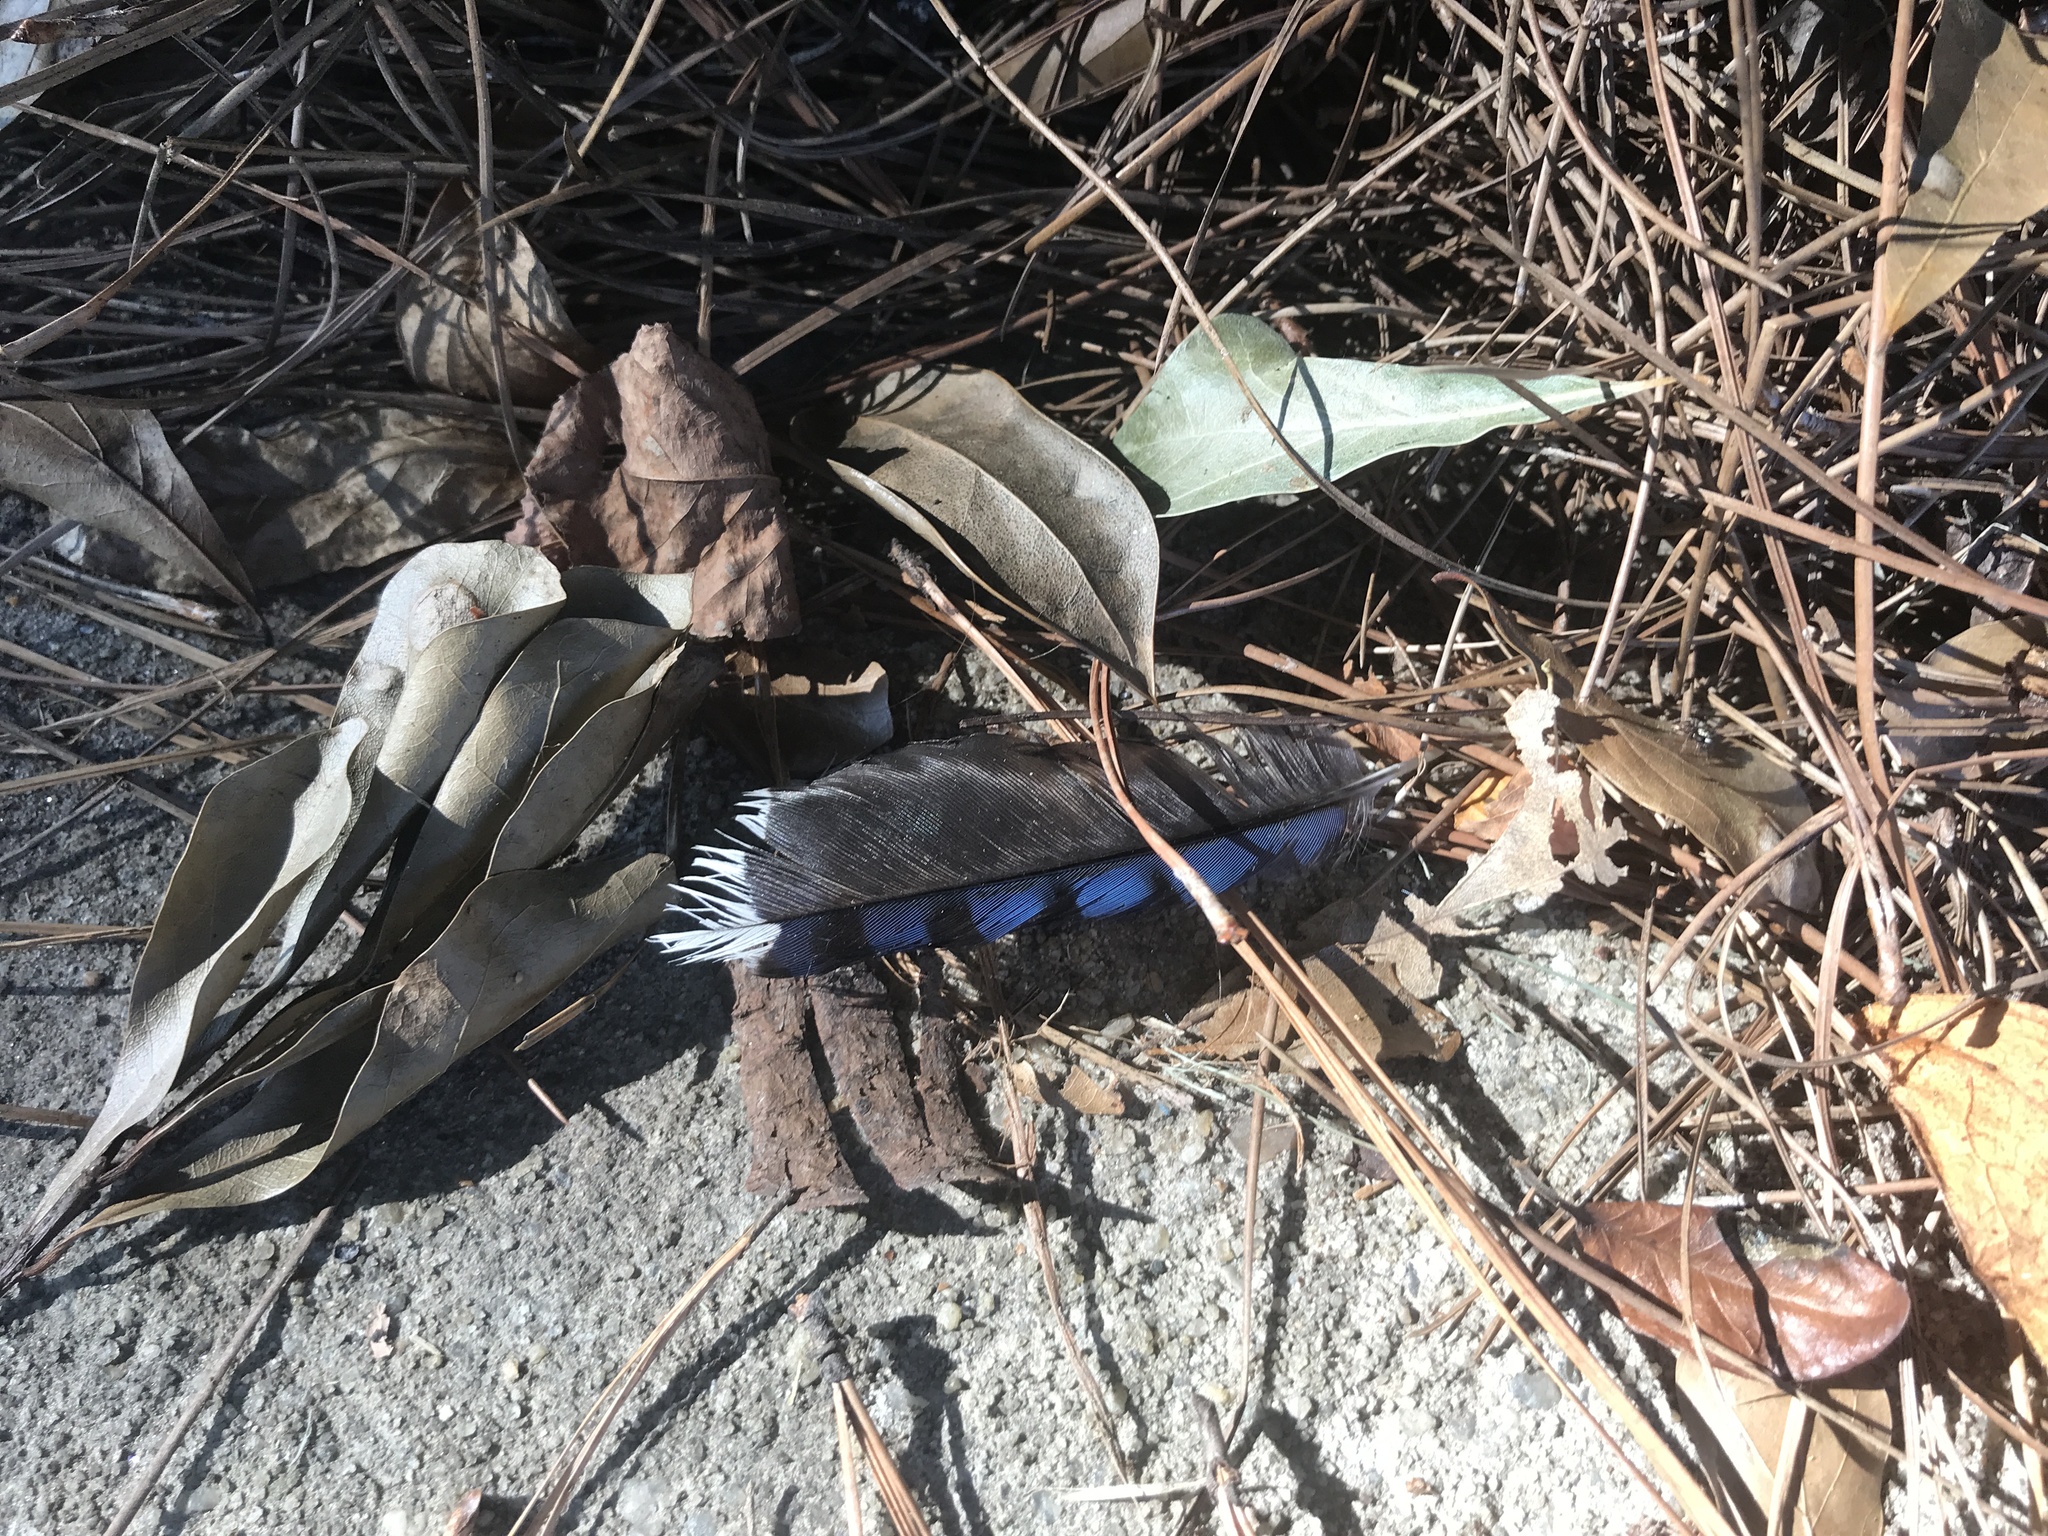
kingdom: Animalia
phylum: Chordata
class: Aves
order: Passeriformes
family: Corvidae
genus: Cyanocitta
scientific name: Cyanocitta cristata
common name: Blue jay
